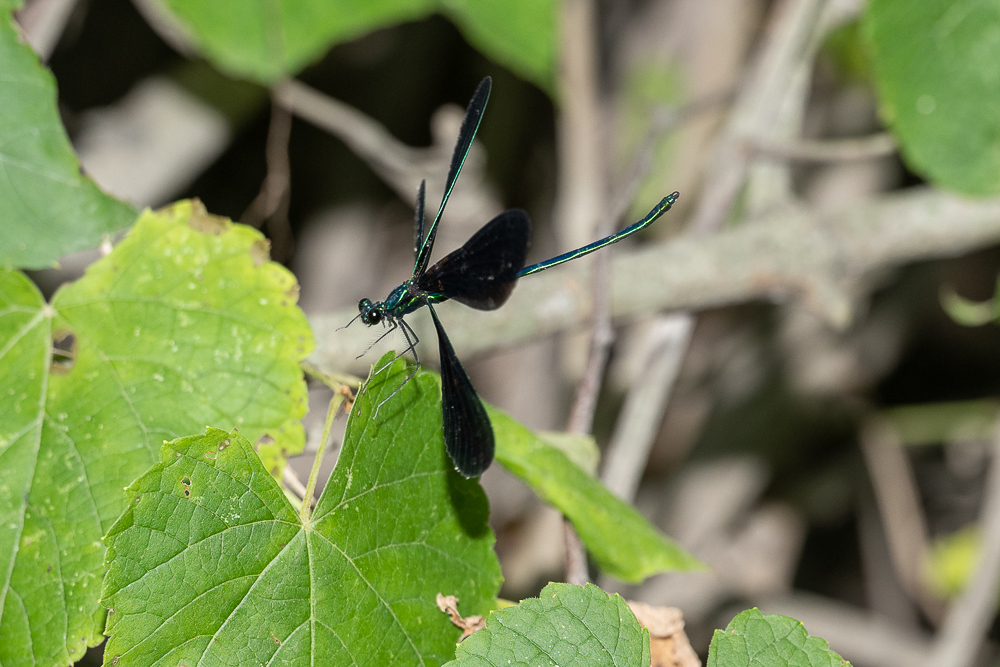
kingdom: Animalia
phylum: Arthropoda
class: Insecta
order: Odonata
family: Calopterygidae
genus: Calopteryx
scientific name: Calopteryx maculata
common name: Ebony jewelwing
